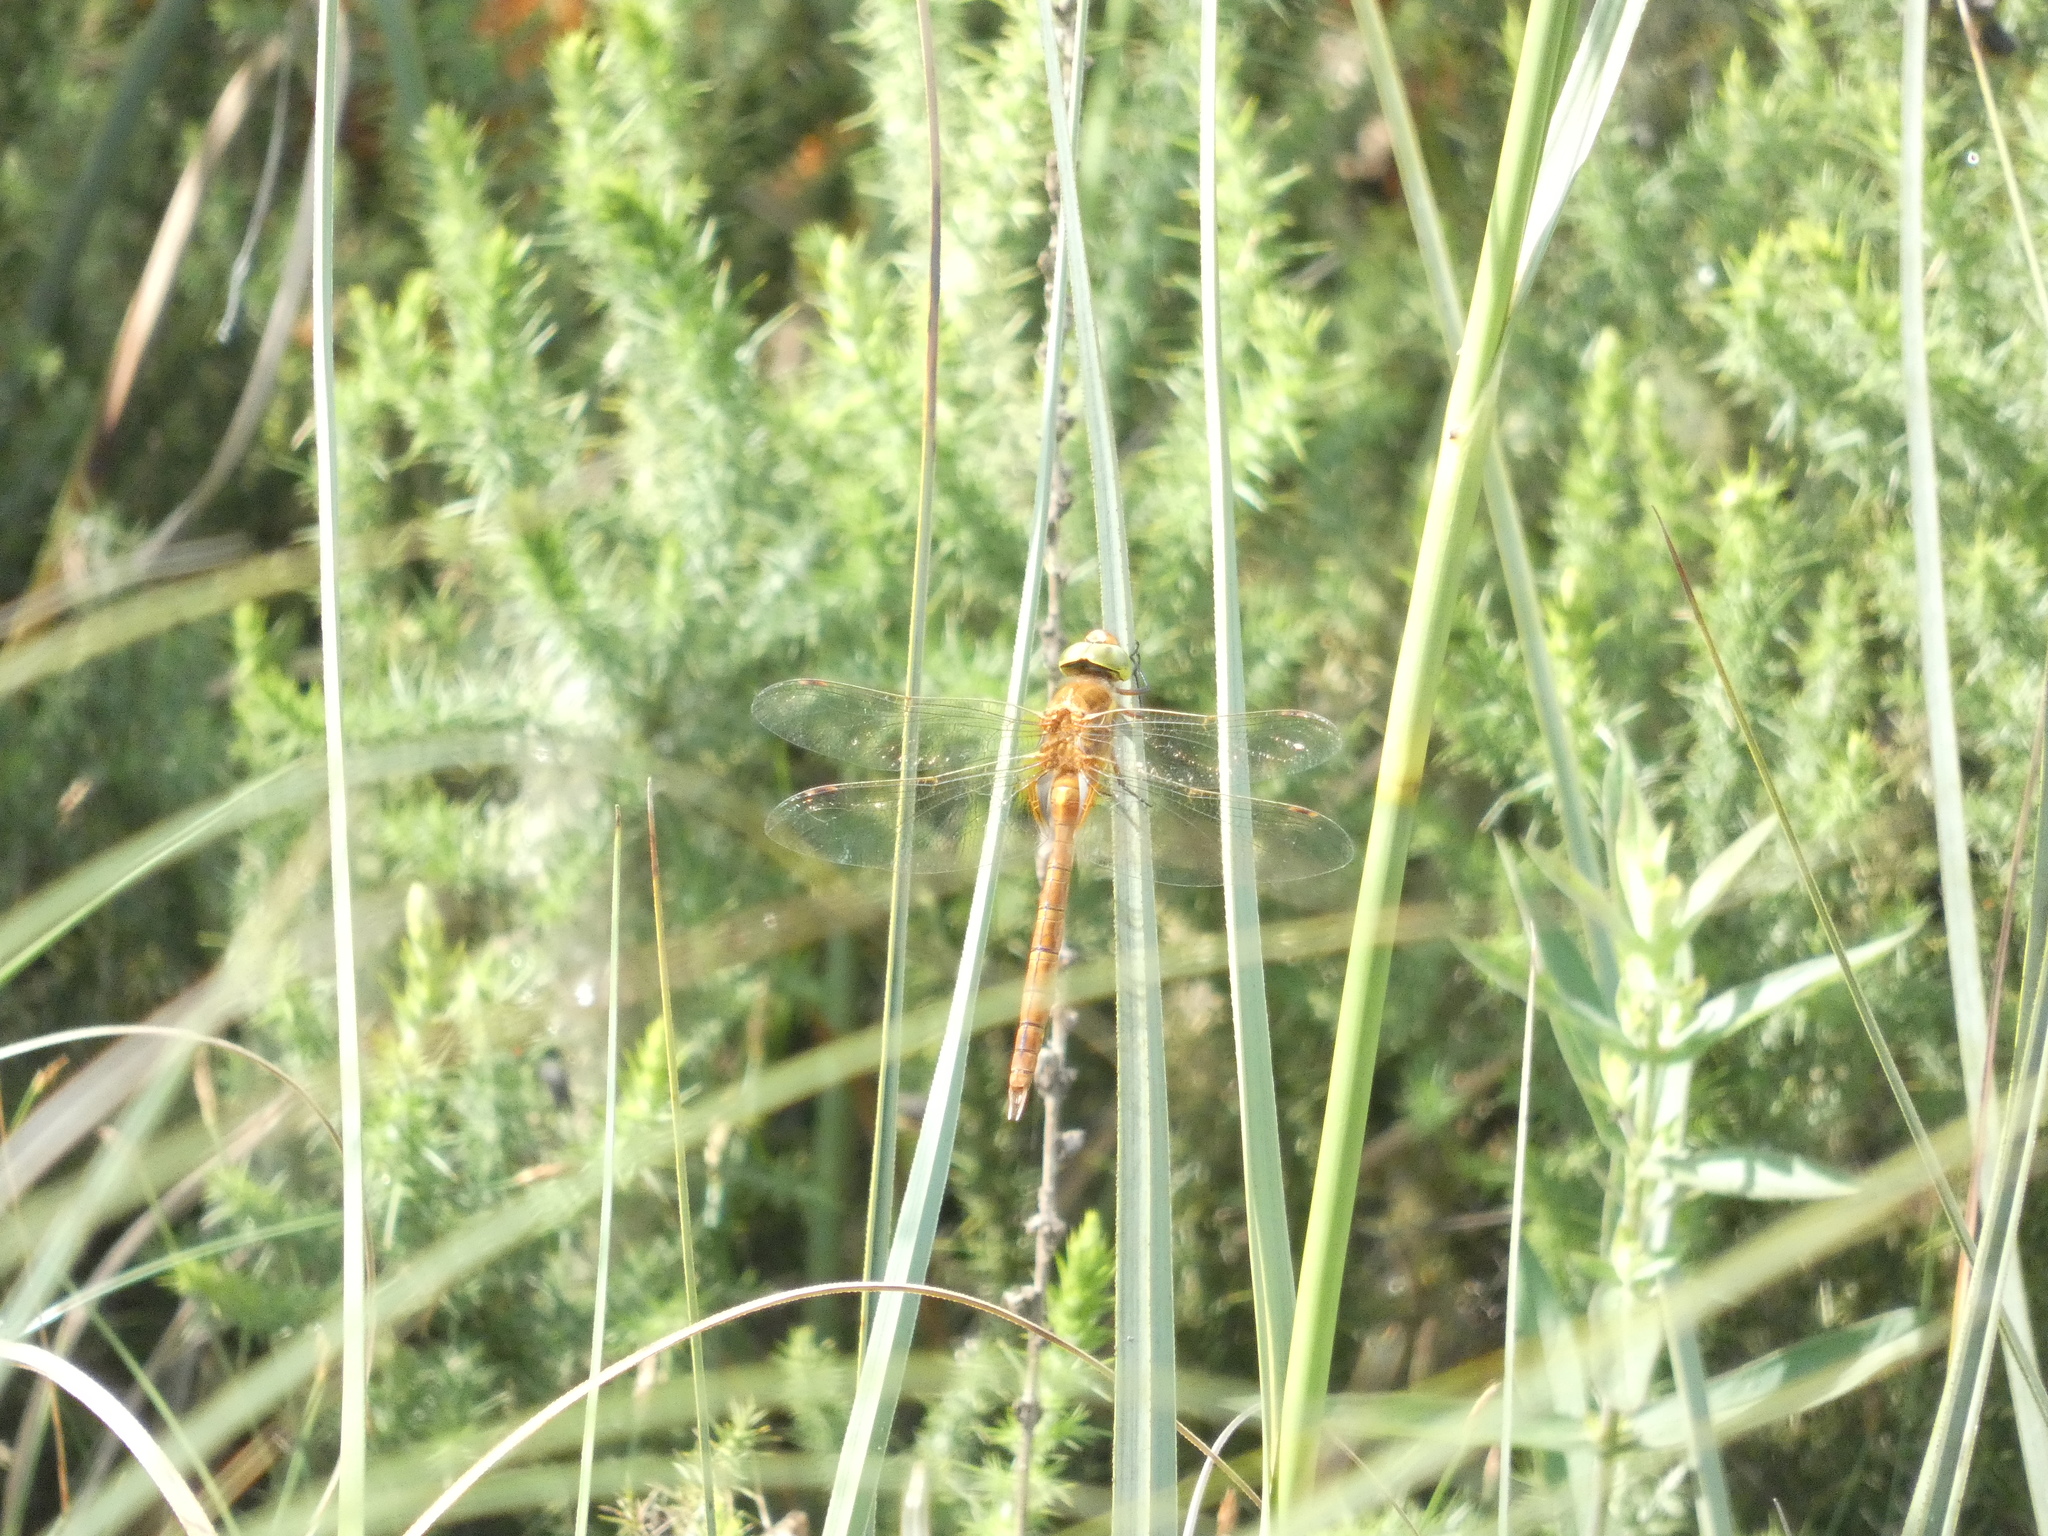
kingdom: Animalia
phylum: Arthropoda
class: Insecta
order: Odonata
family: Aeshnidae
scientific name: Aeshnidae
